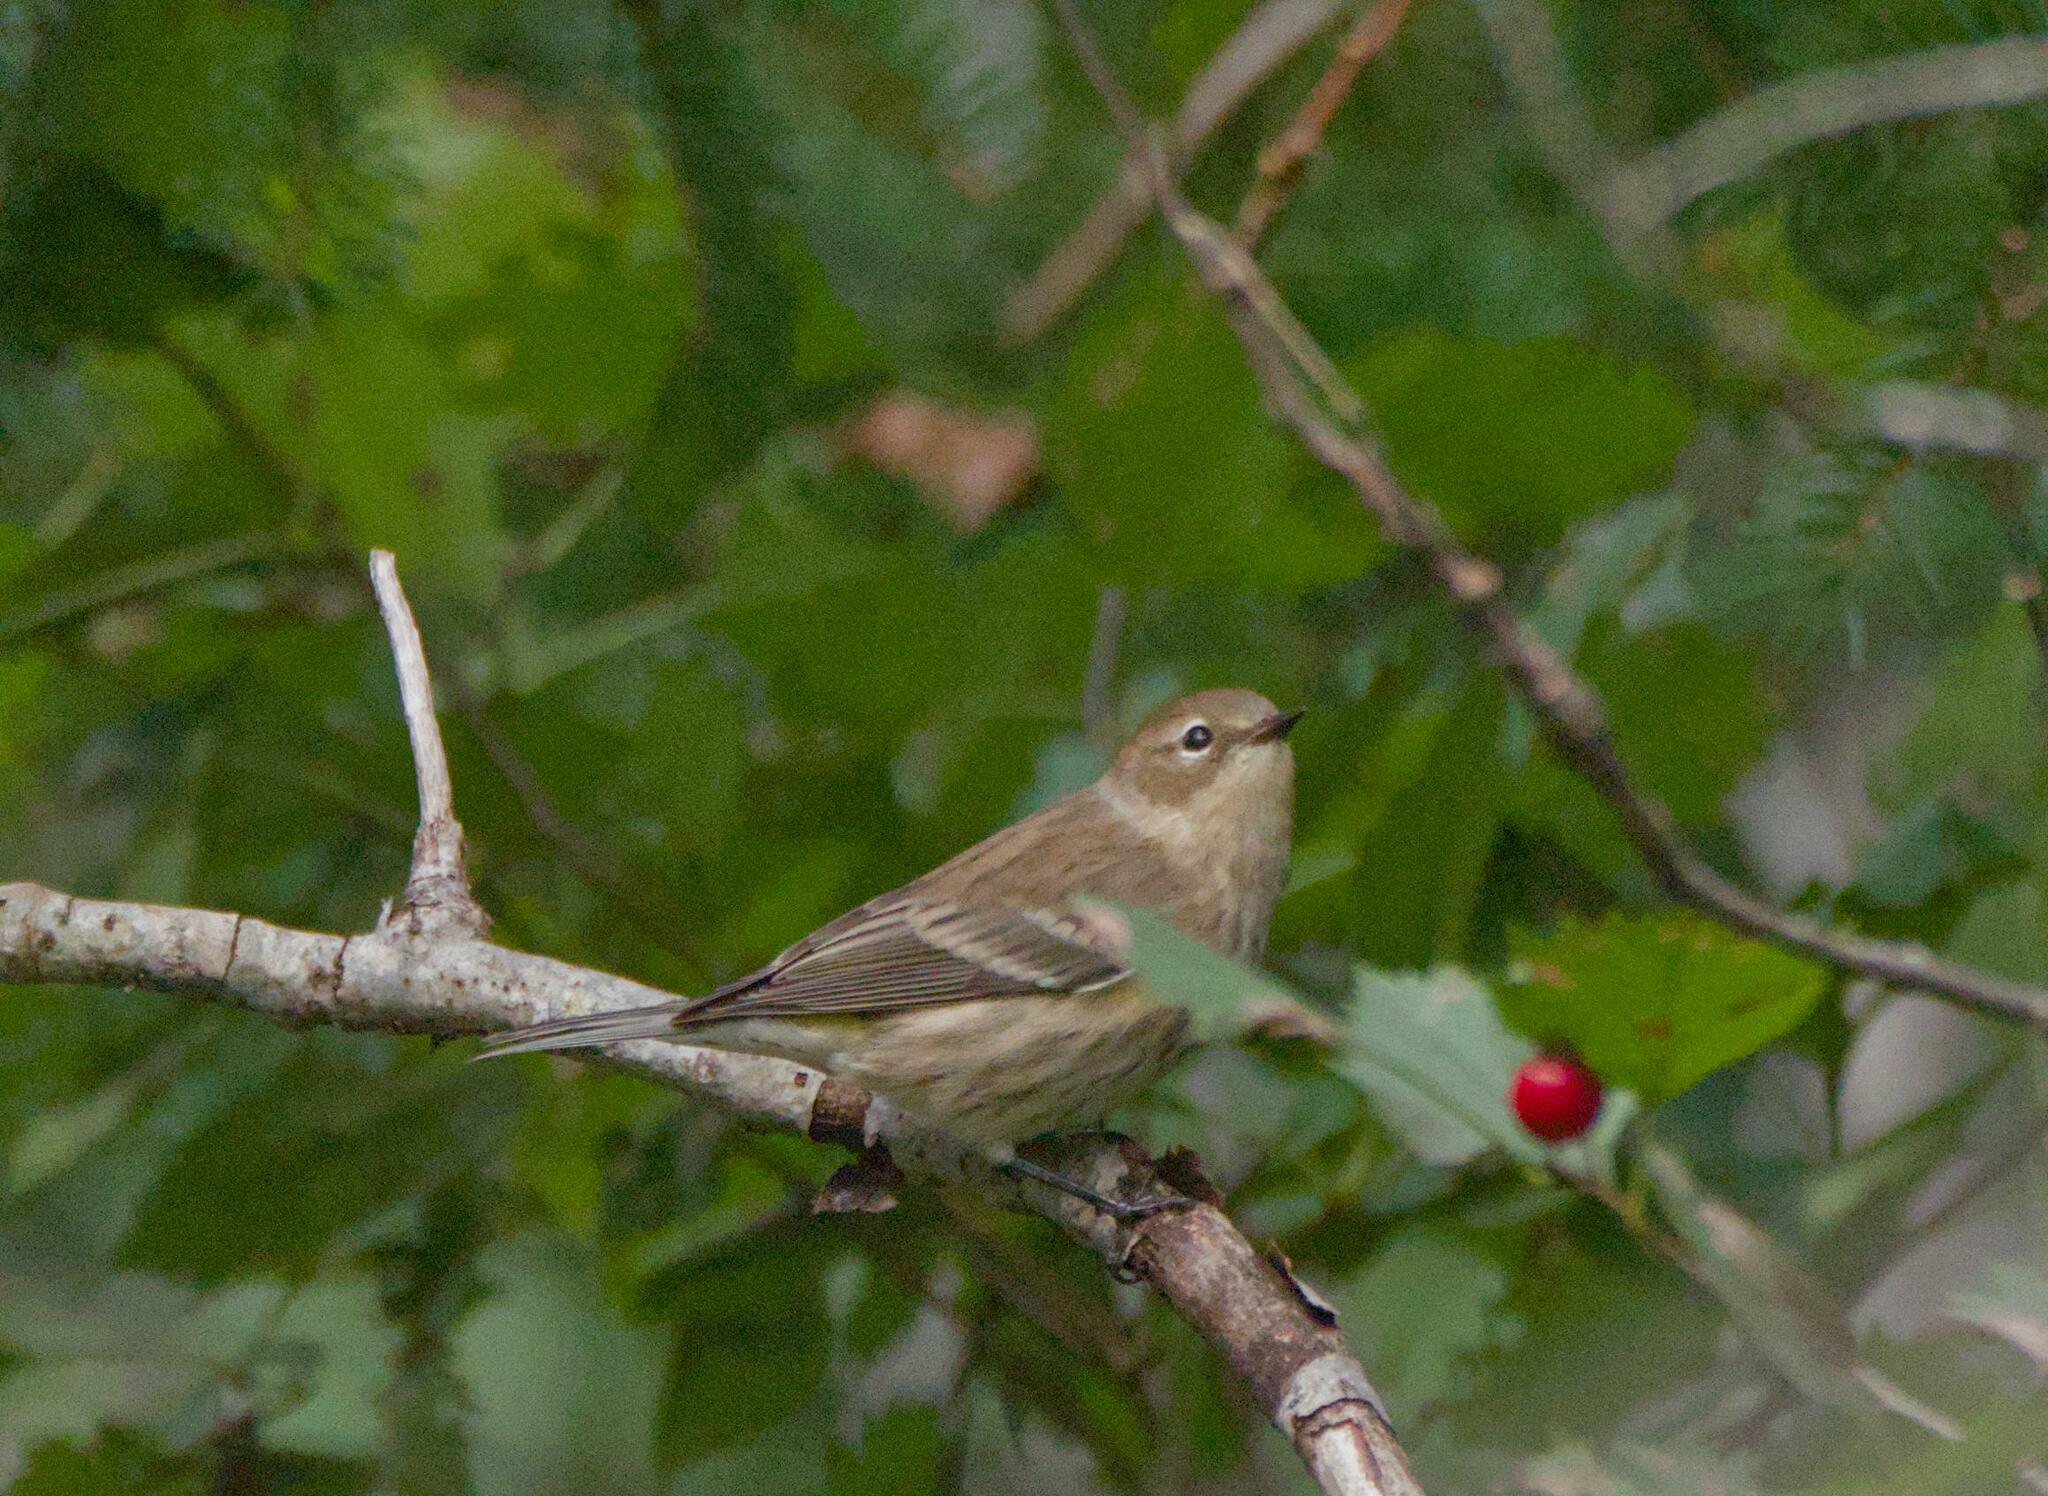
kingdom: Animalia
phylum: Chordata
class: Aves
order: Passeriformes
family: Parulidae
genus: Setophaga
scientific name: Setophaga coronata
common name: Myrtle warbler
